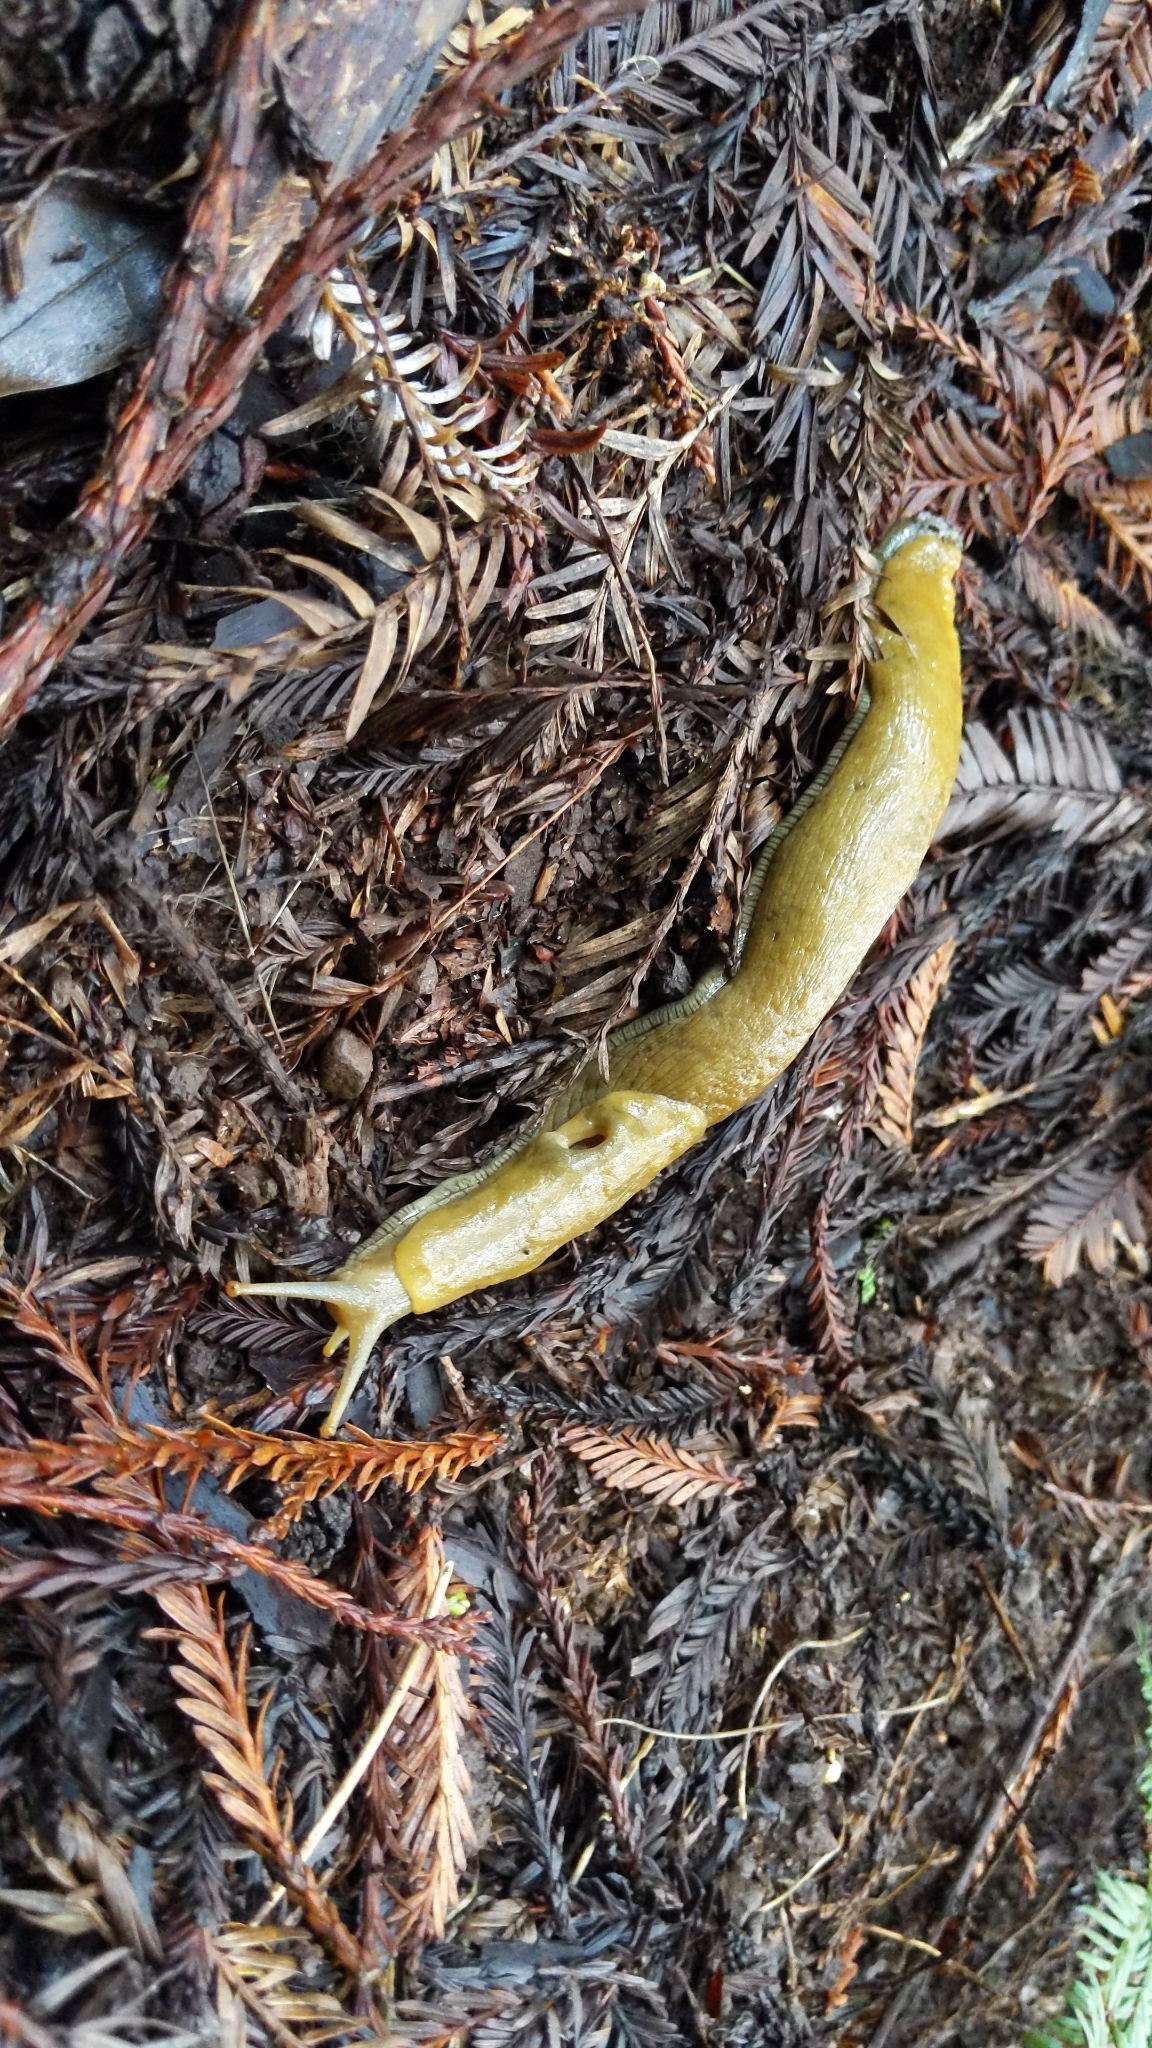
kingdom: Animalia
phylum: Mollusca
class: Gastropoda
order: Stylommatophora
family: Ariolimacidae
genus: Ariolimax
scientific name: Ariolimax buttoni
